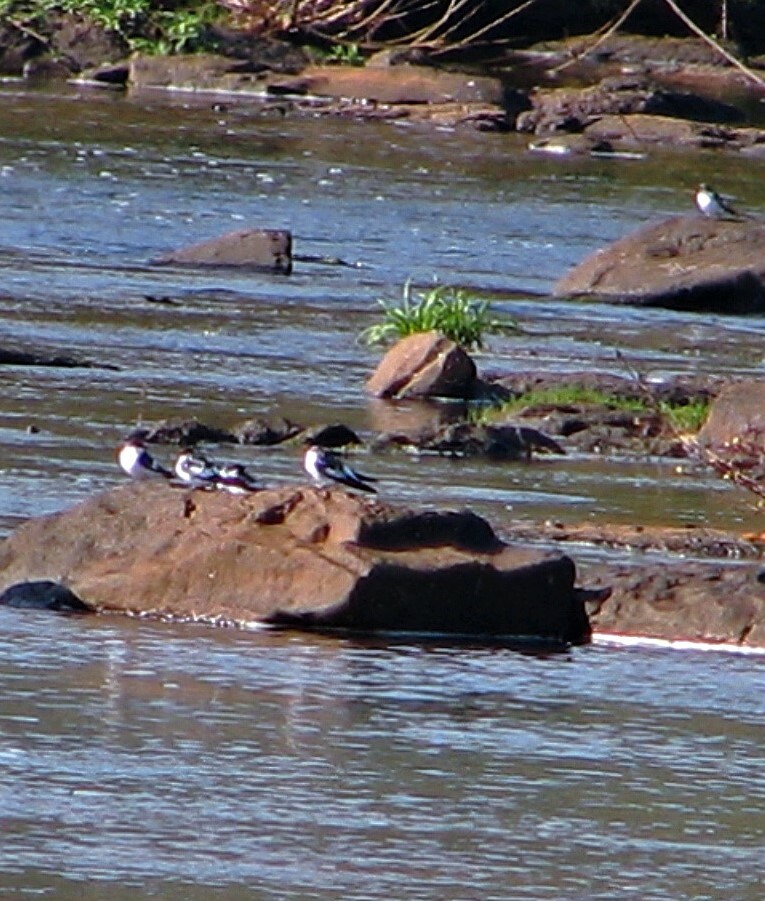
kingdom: Animalia
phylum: Chordata
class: Aves
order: Passeriformes
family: Hirundinidae
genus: Tachycineta
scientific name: Tachycineta albiventer
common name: White-winged swallow
